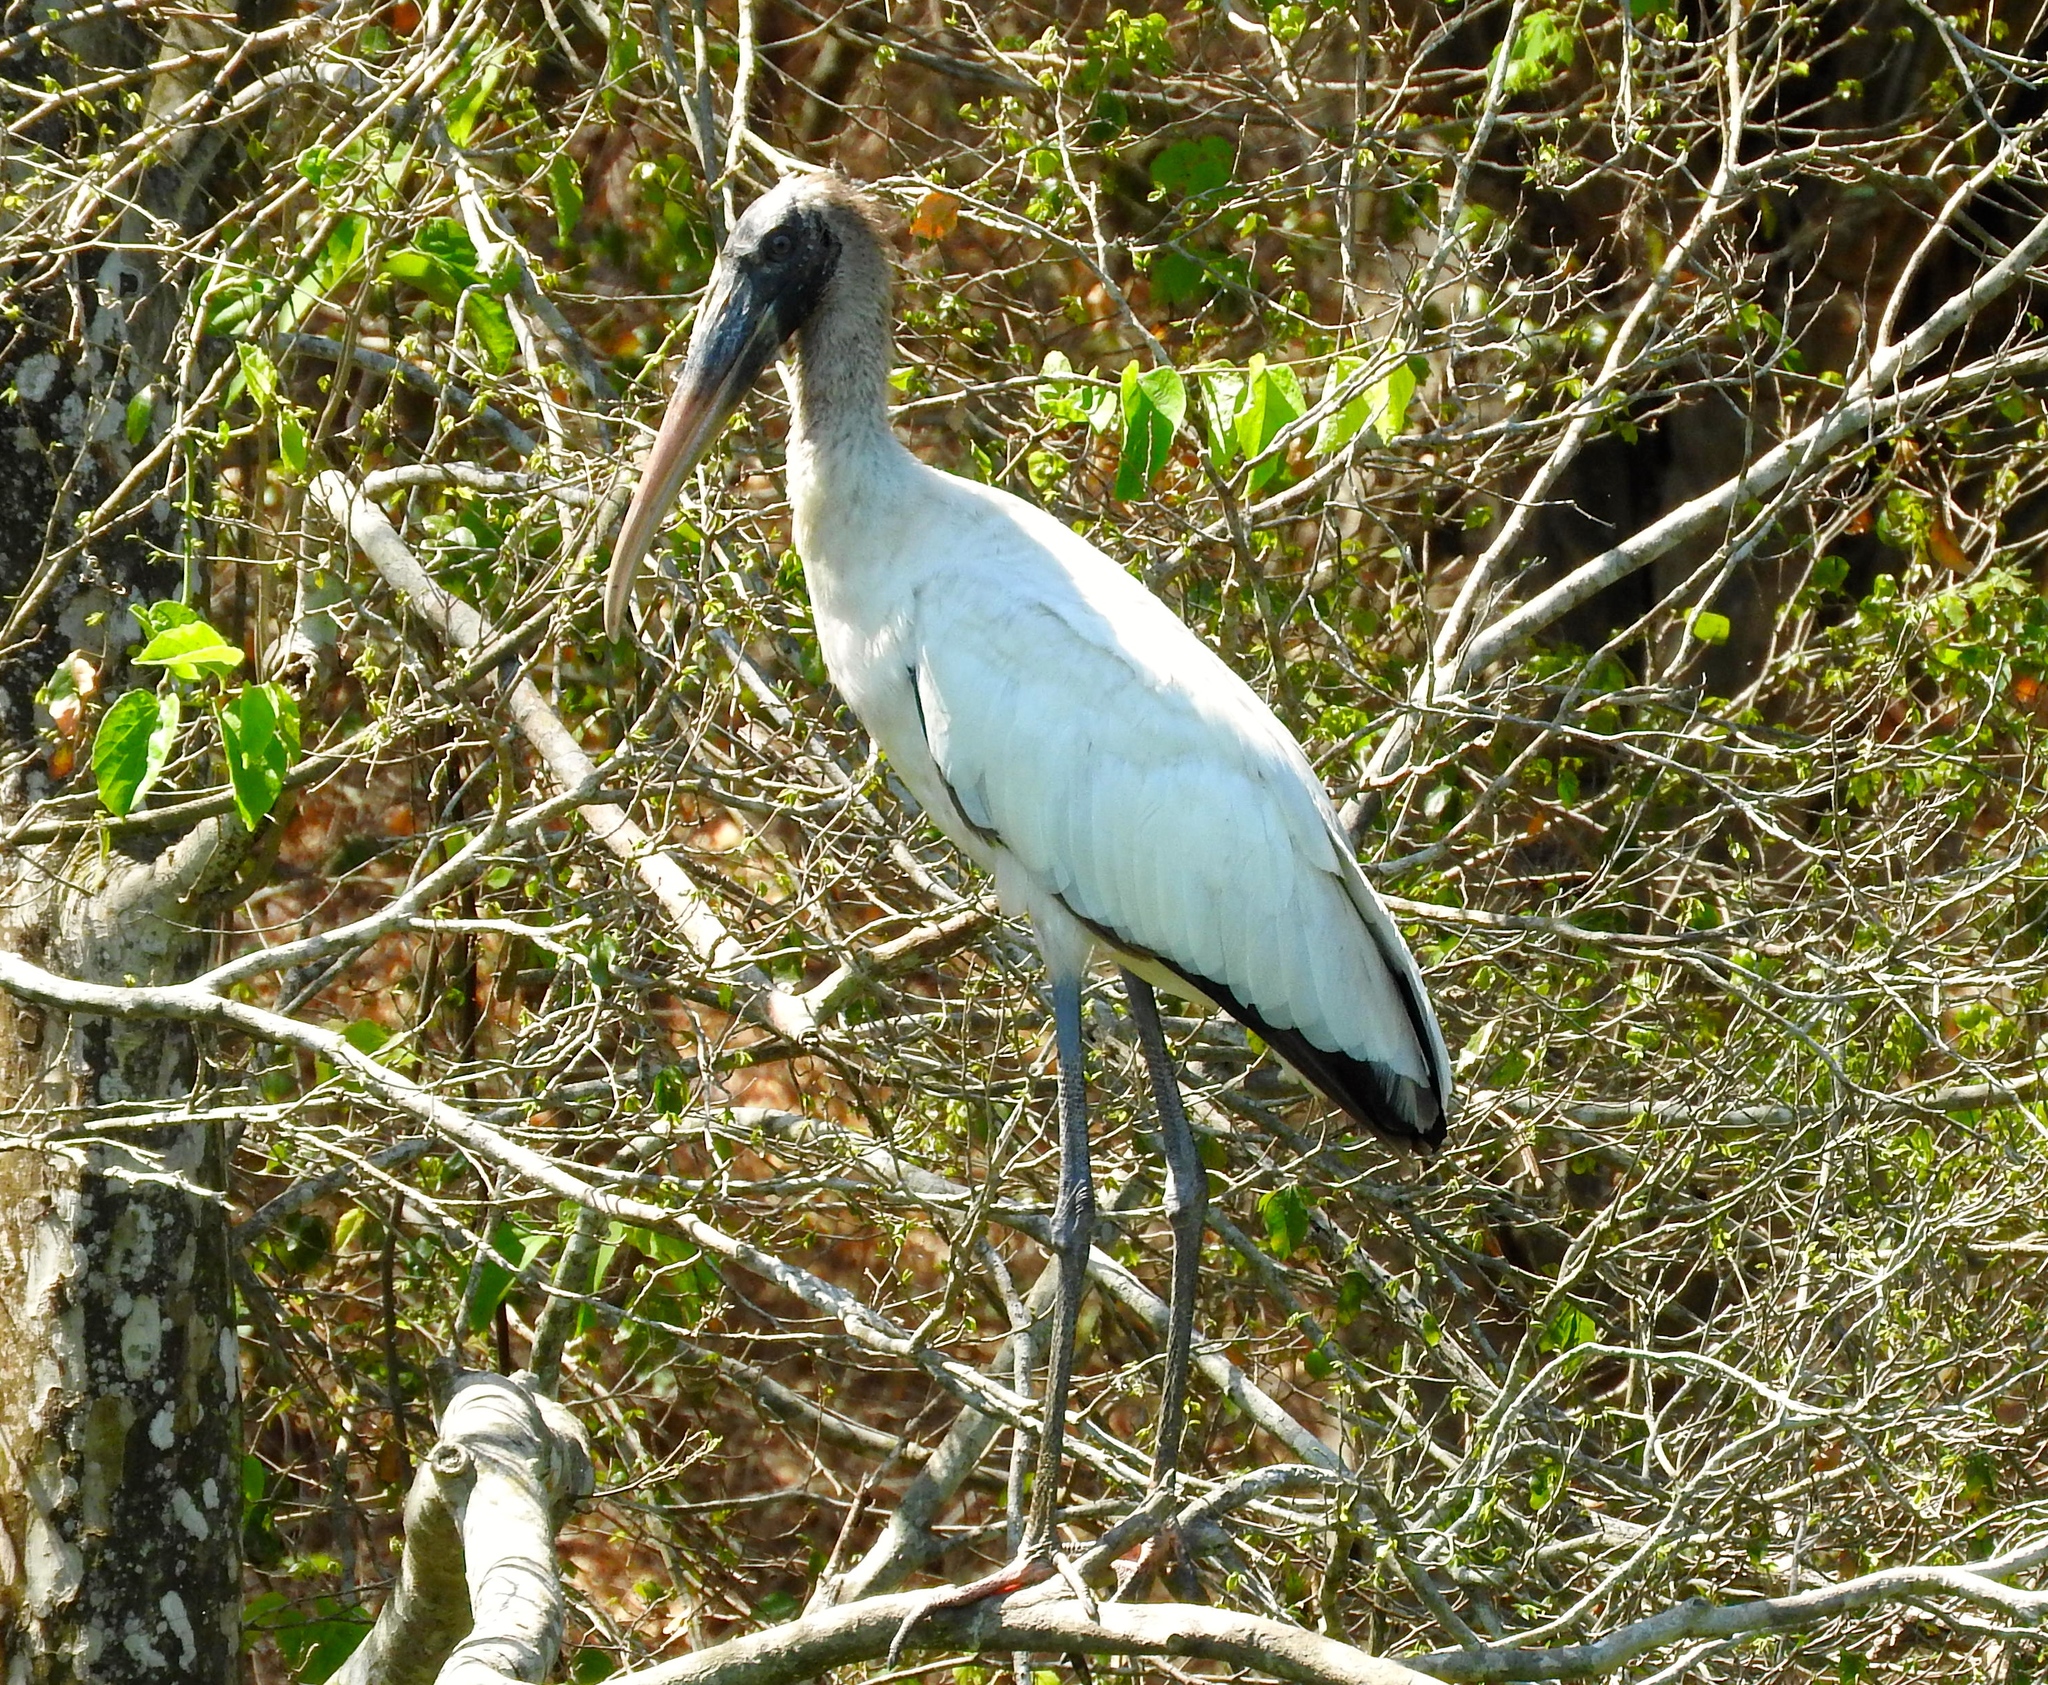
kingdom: Animalia
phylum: Chordata
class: Aves
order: Ciconiiformes
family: Ciconiidae
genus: Mycteria
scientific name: Mycteria americana
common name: Wood stork
